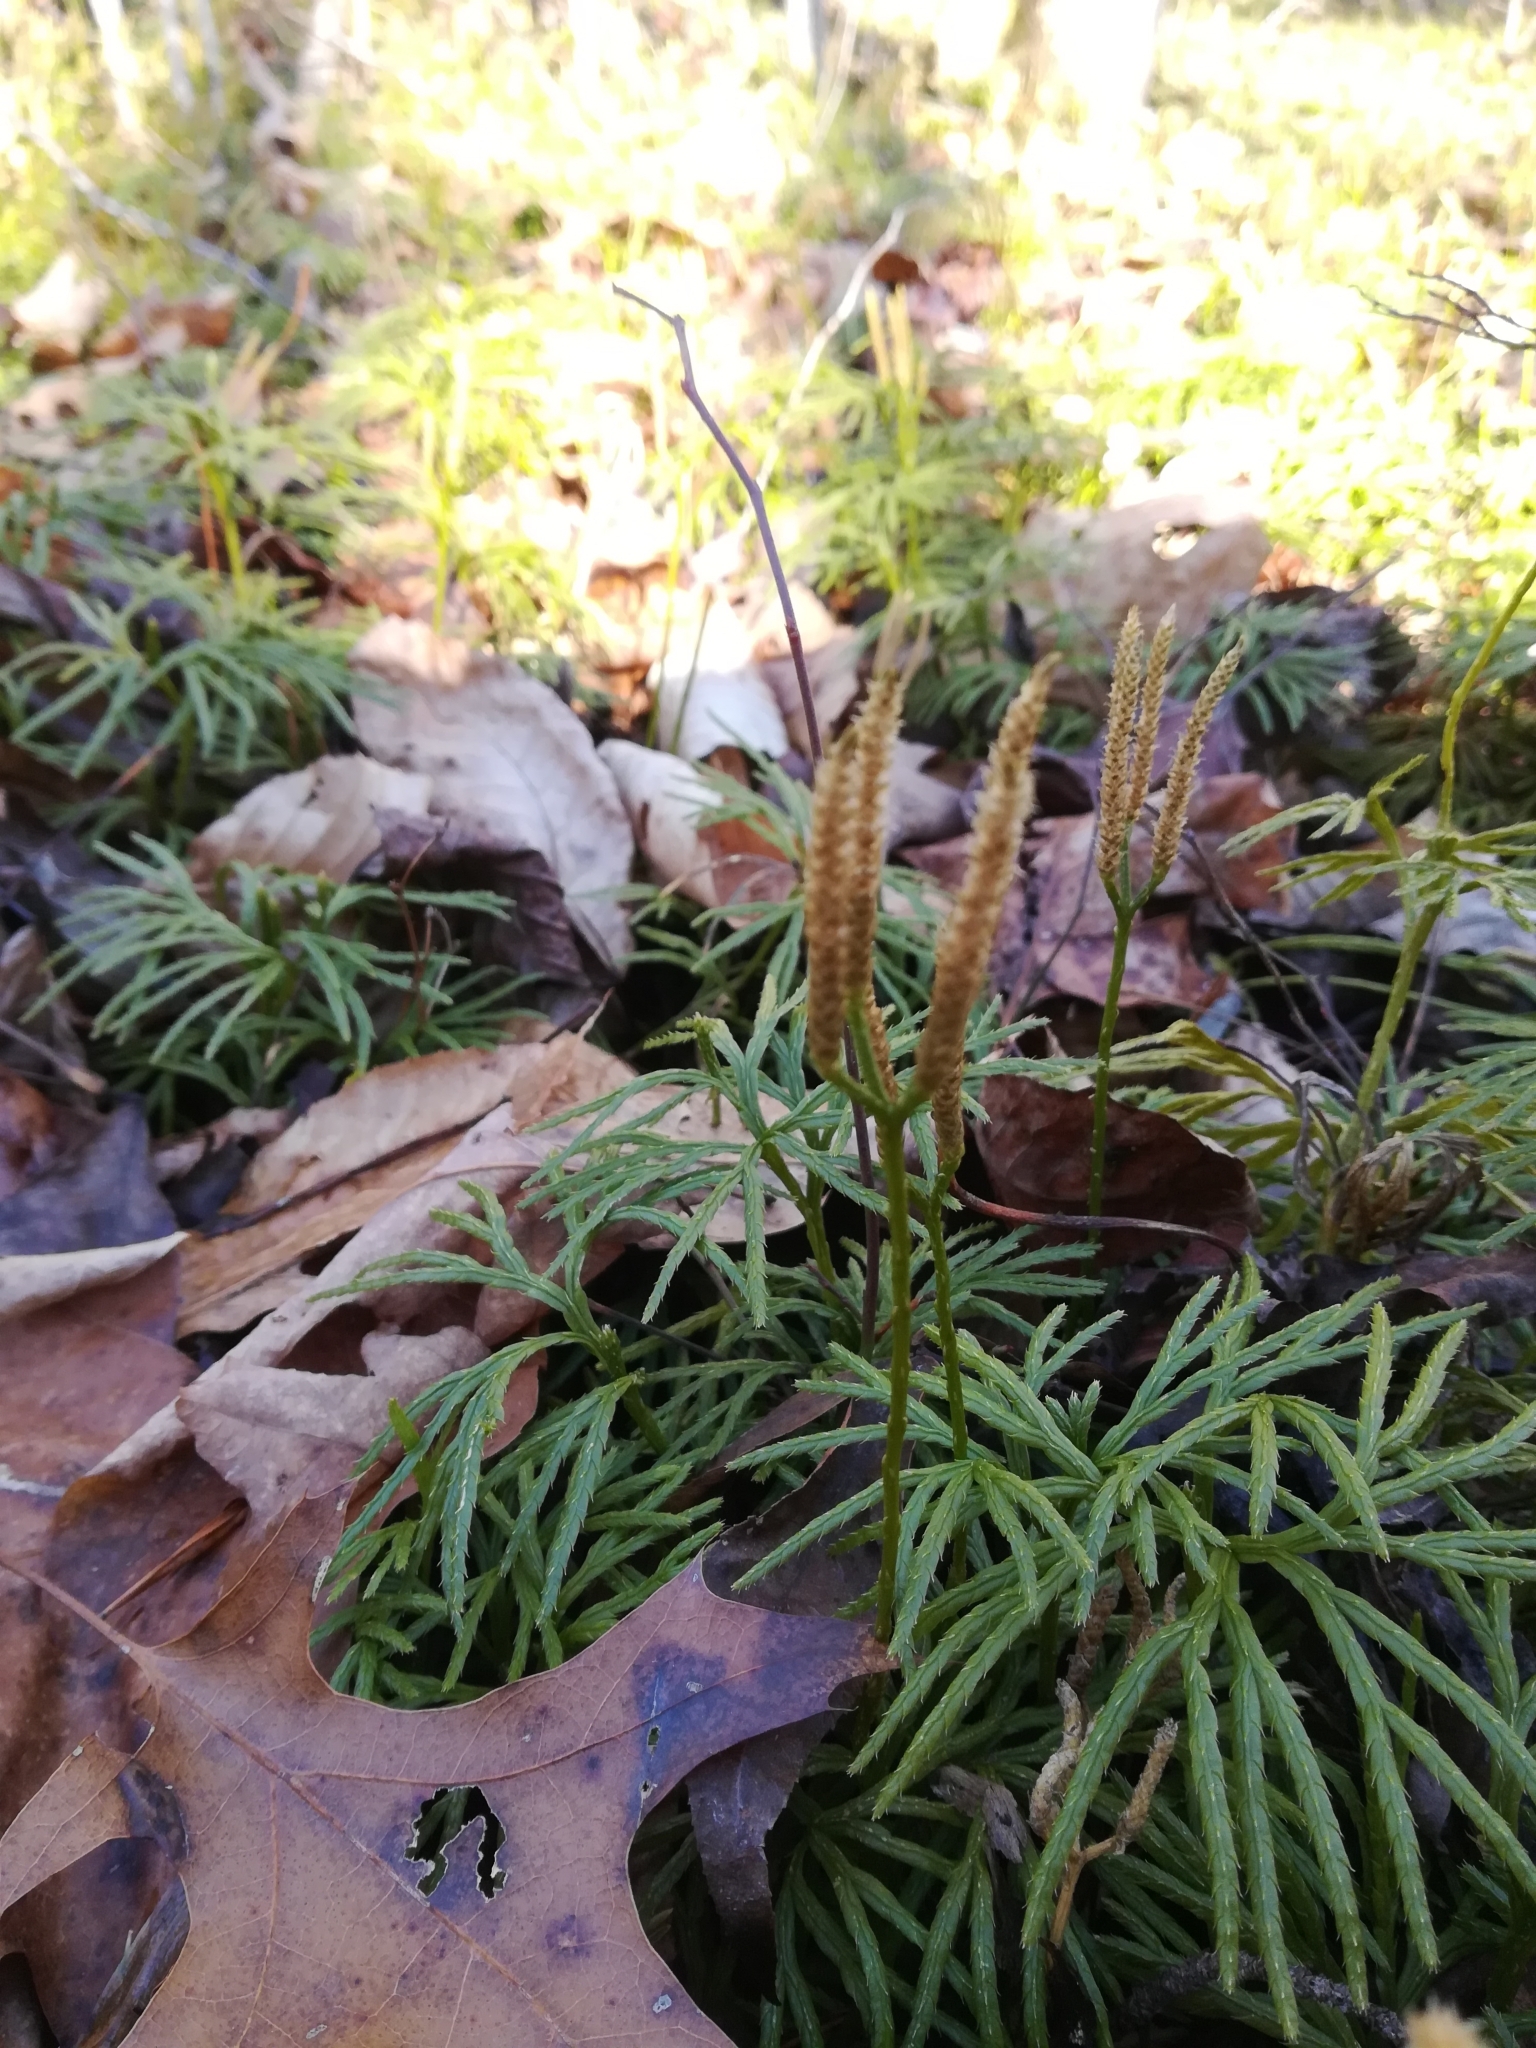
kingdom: Plantae
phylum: Tracheophyta
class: Lycopodiopsida
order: Lycopodiales
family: Lycopodiaceae
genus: Diphasiastrum
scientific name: Diphasiastrum digitatum
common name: Southern running-pine
